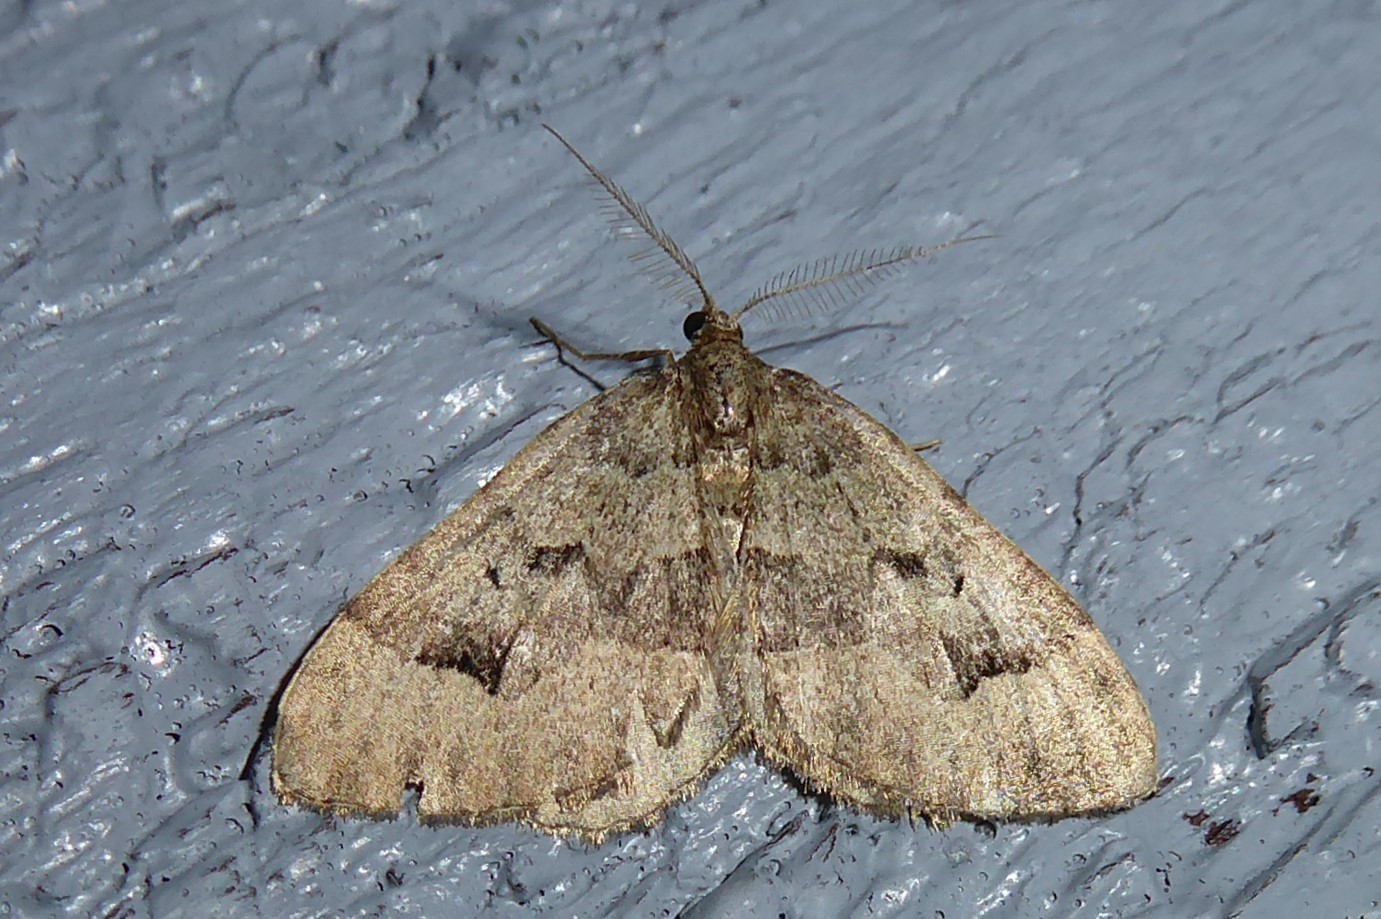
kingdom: Animalia
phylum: Arthropoda
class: Insecta
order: Lepidoptera
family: Geometridae
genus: Epyaxa
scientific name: Epyaxa rosearia
